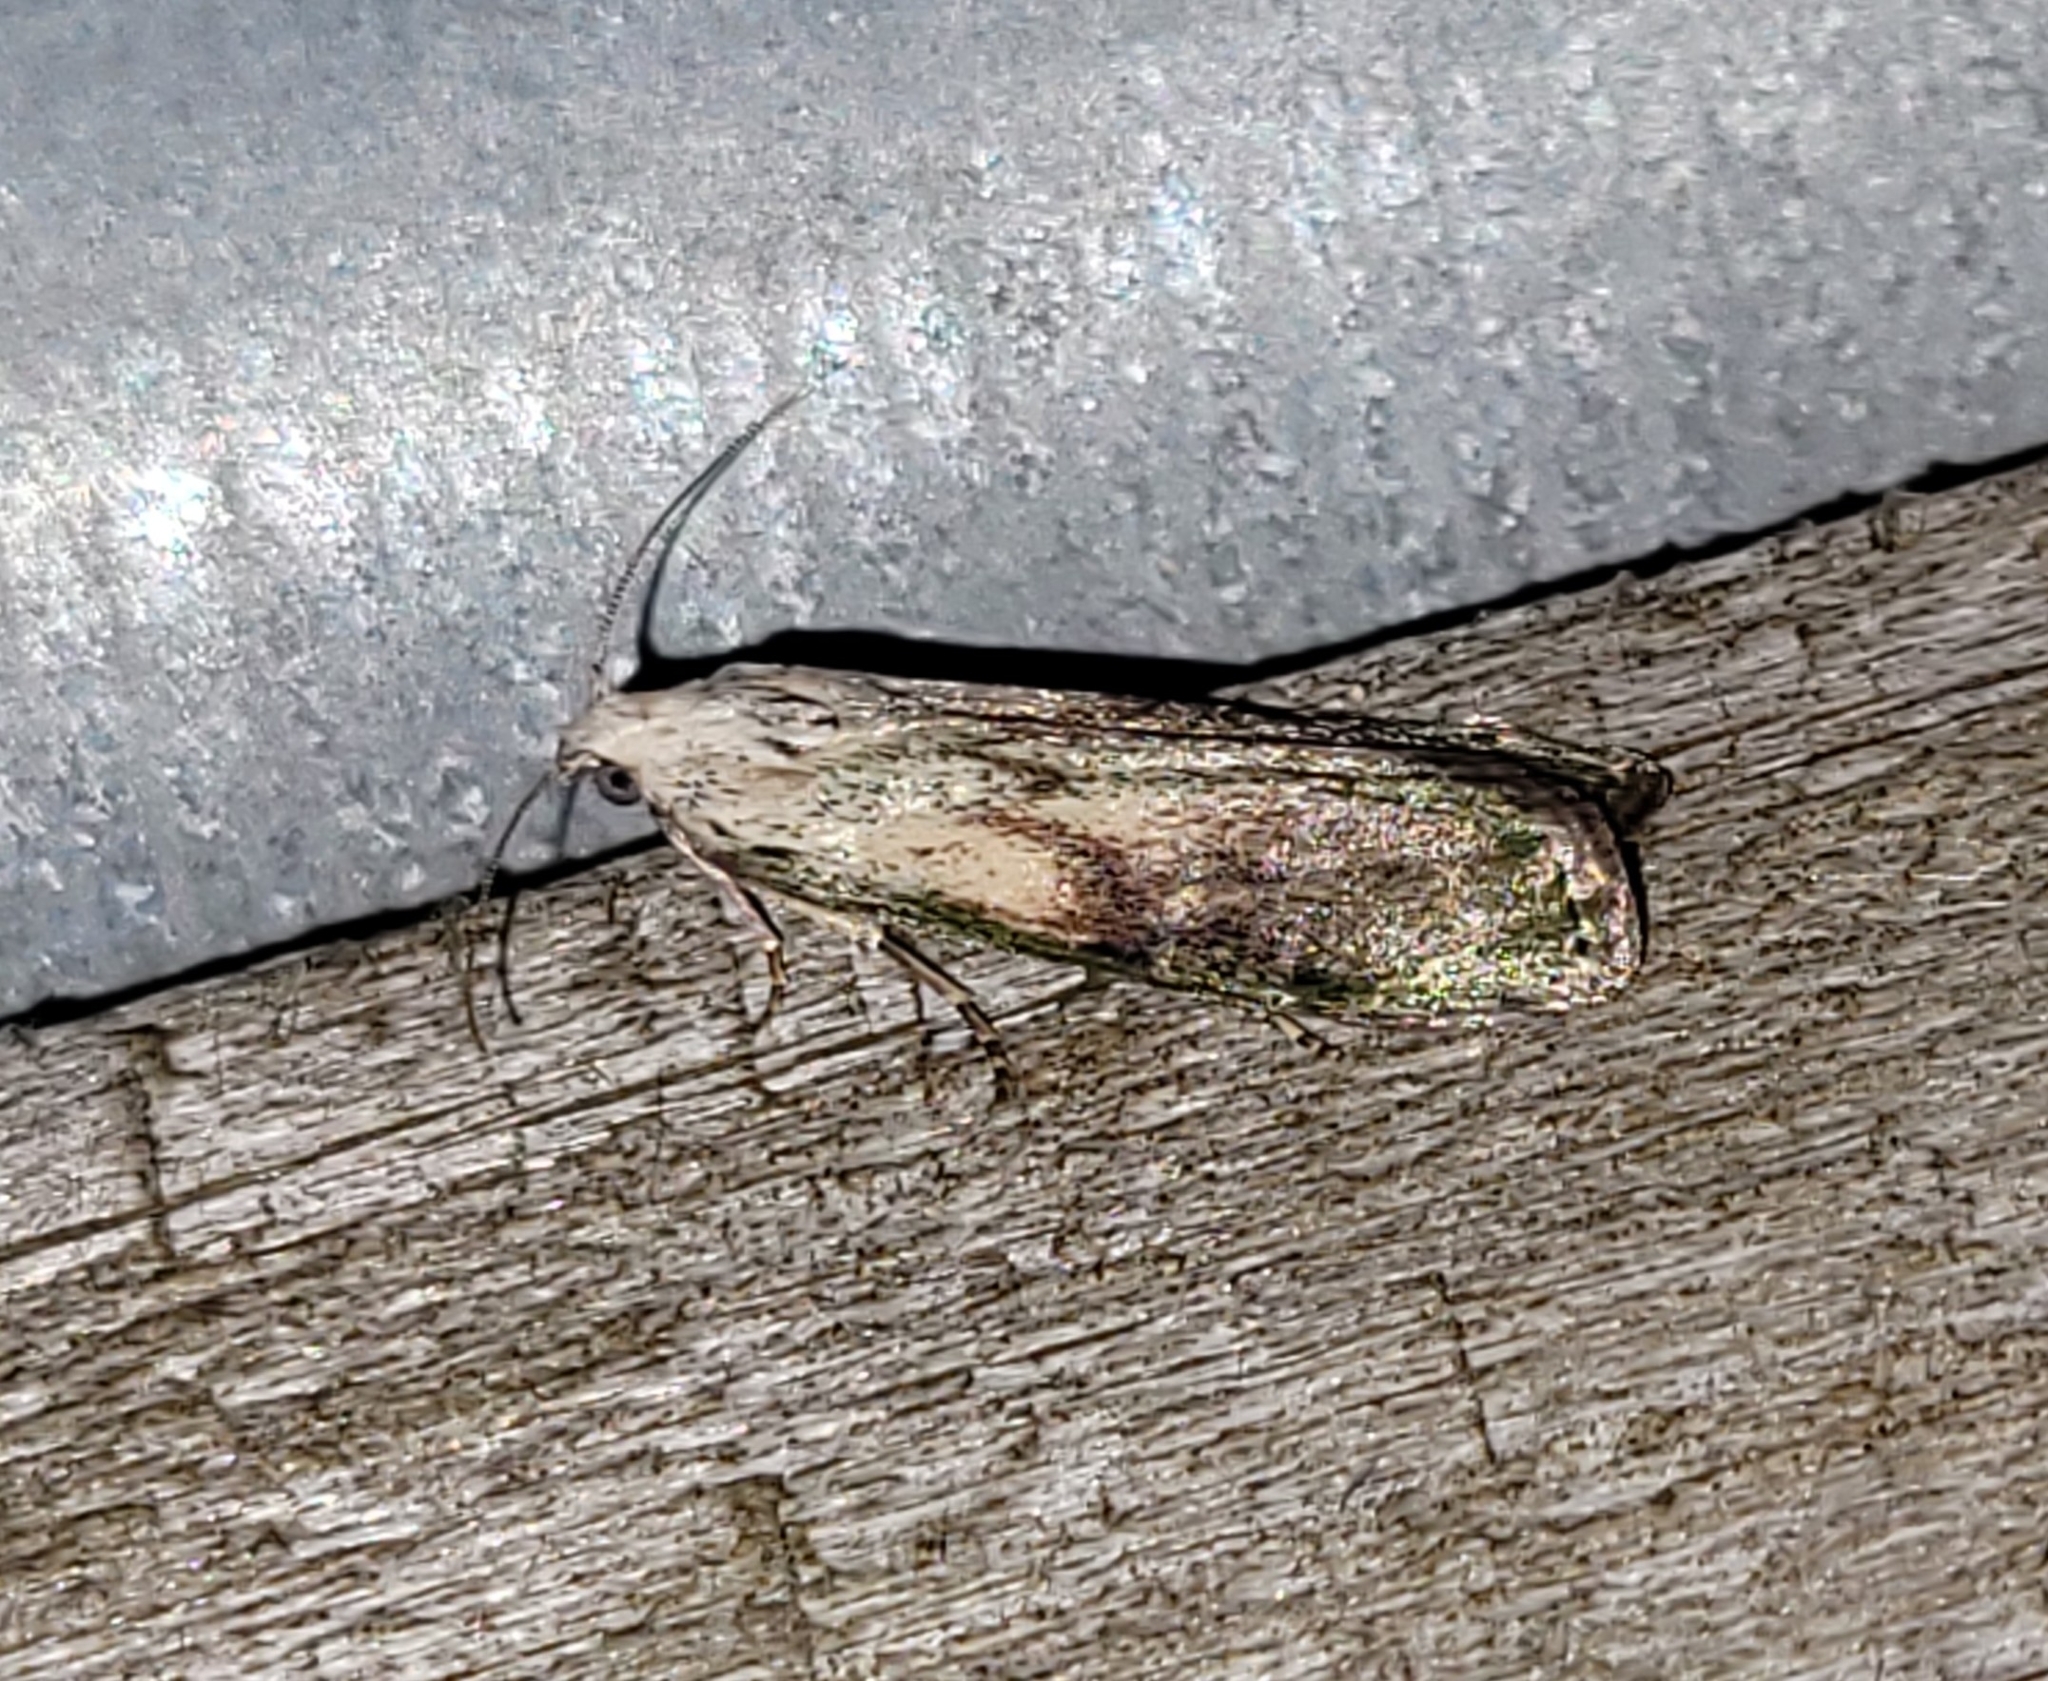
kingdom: Animalia
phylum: Arthropoda
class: Insecta
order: Lepidoptera
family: Pyralidae
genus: Aphomia
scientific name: Aphomia sociella
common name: Bee moth
